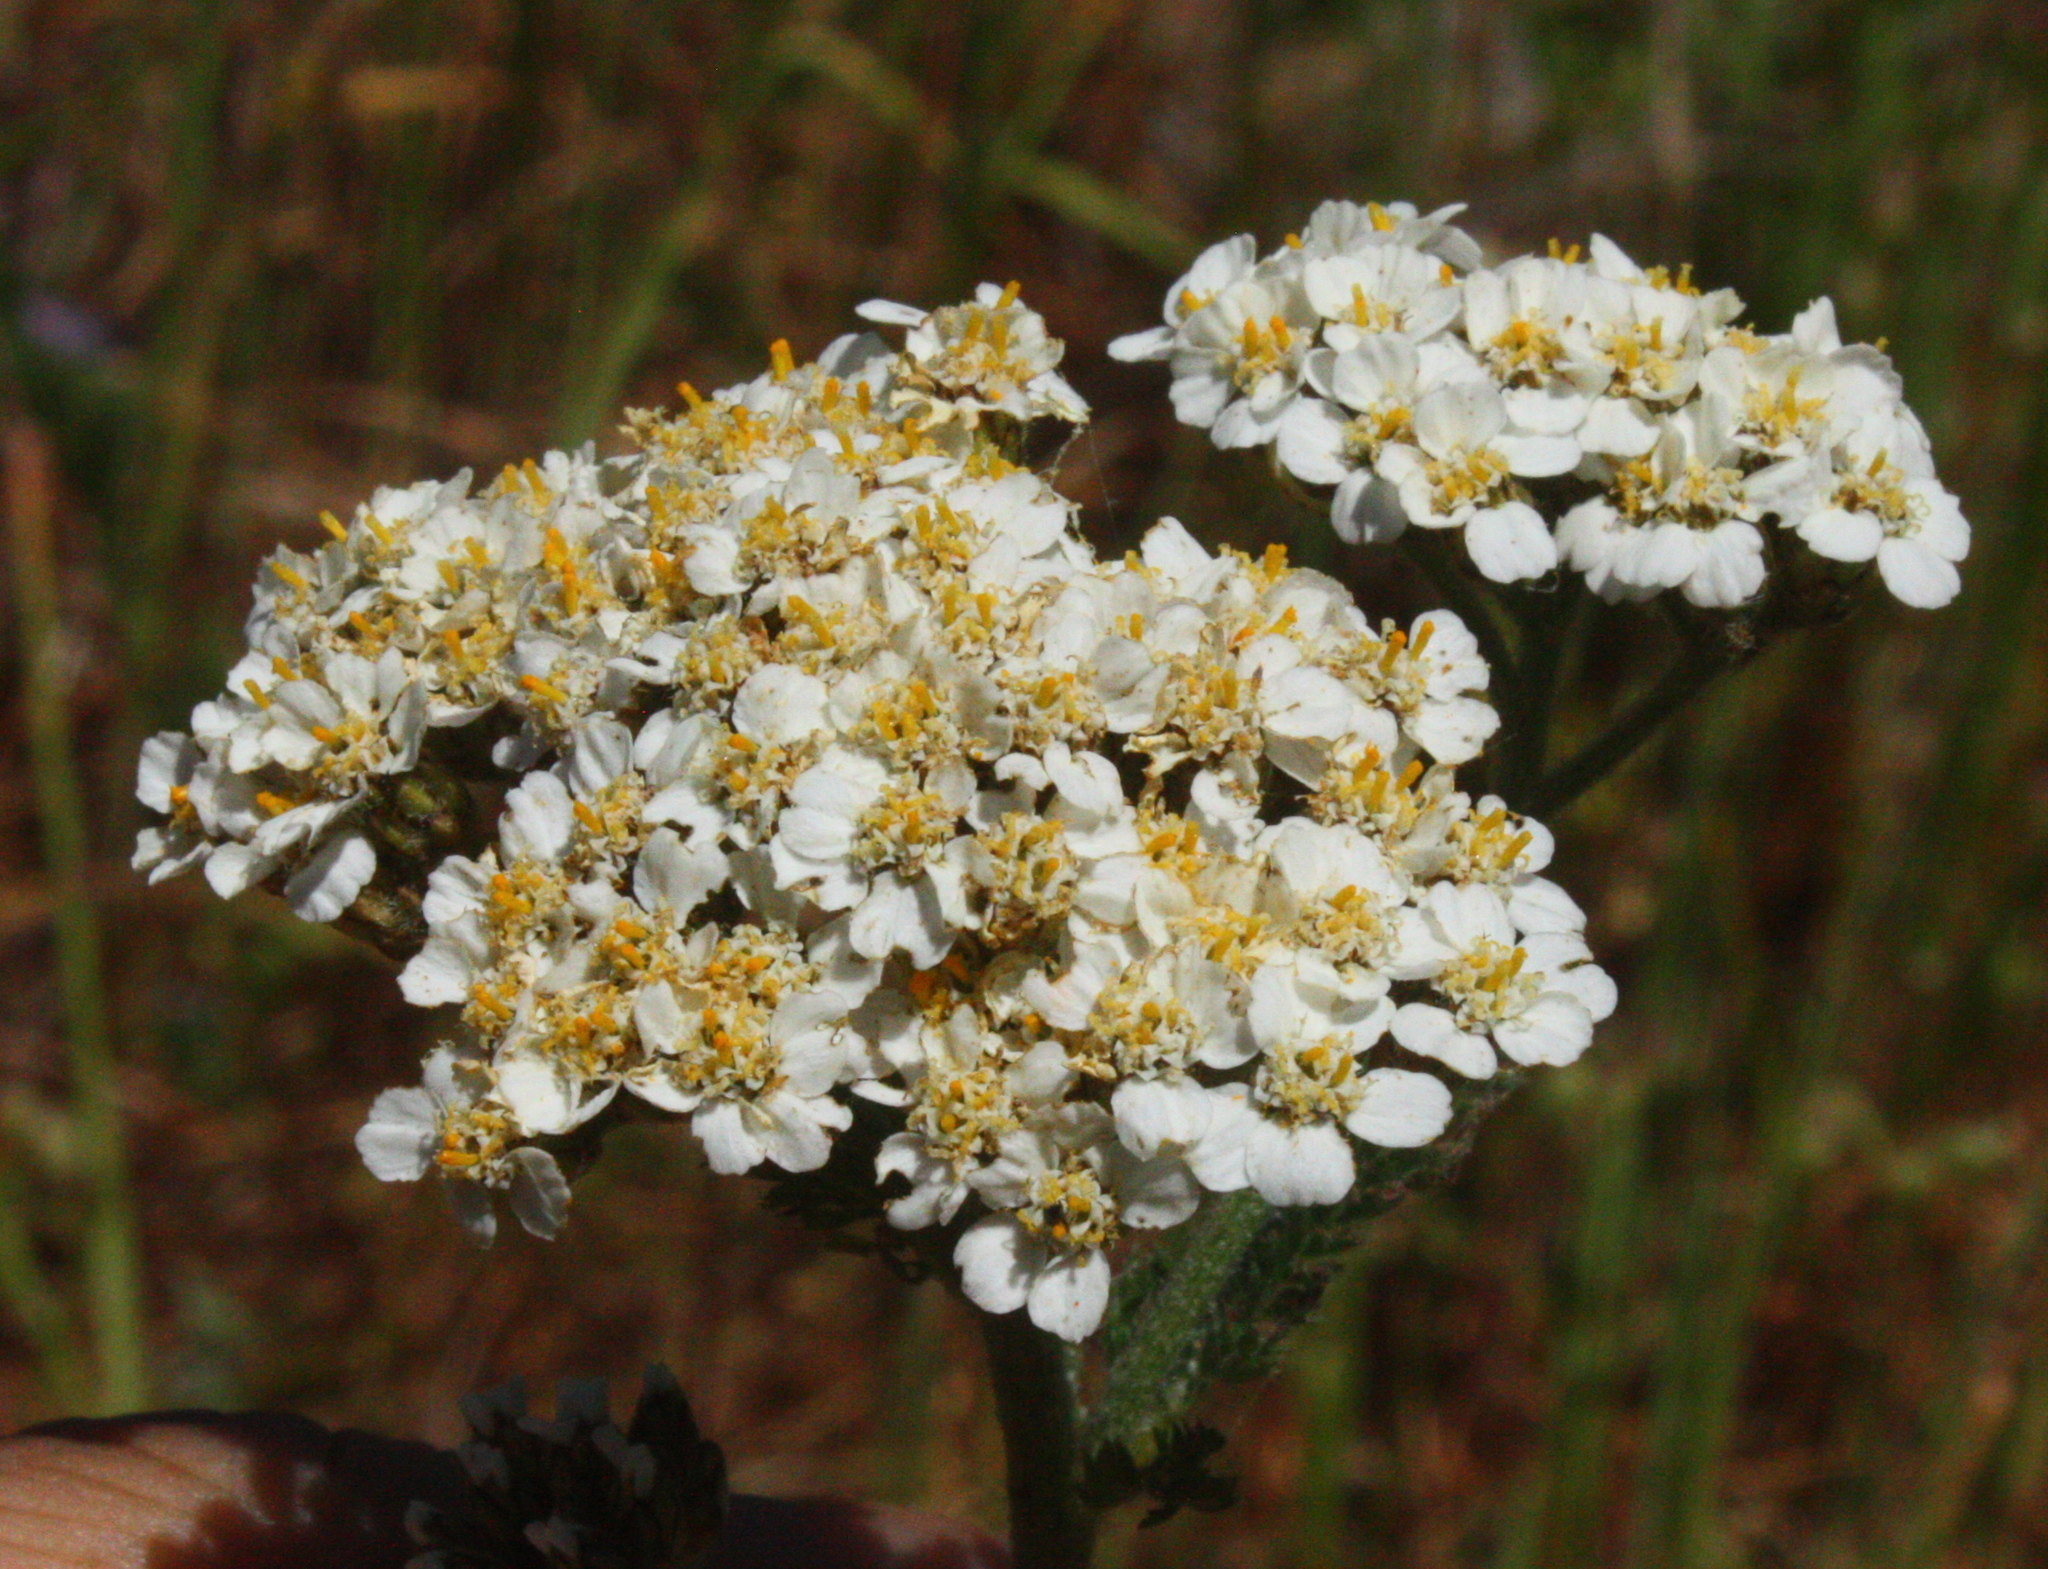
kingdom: Plantae
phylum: Tracheophyta
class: Magnoliopsida
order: Asterales
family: Asteraceae
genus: Achillea
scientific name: Achillea millefolium
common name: Yarrow
